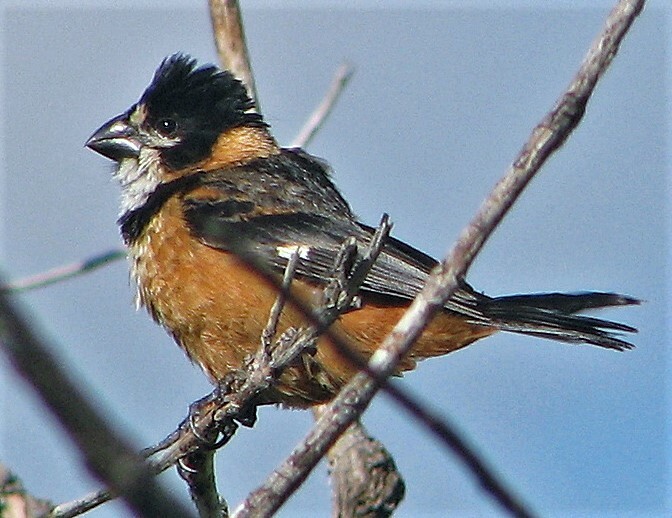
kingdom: Animalia
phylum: Chordata
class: Aves
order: Passeriformes
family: Thraupidae
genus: Sporophila
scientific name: Sporophila collaris
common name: Rusty-collared seedeater
